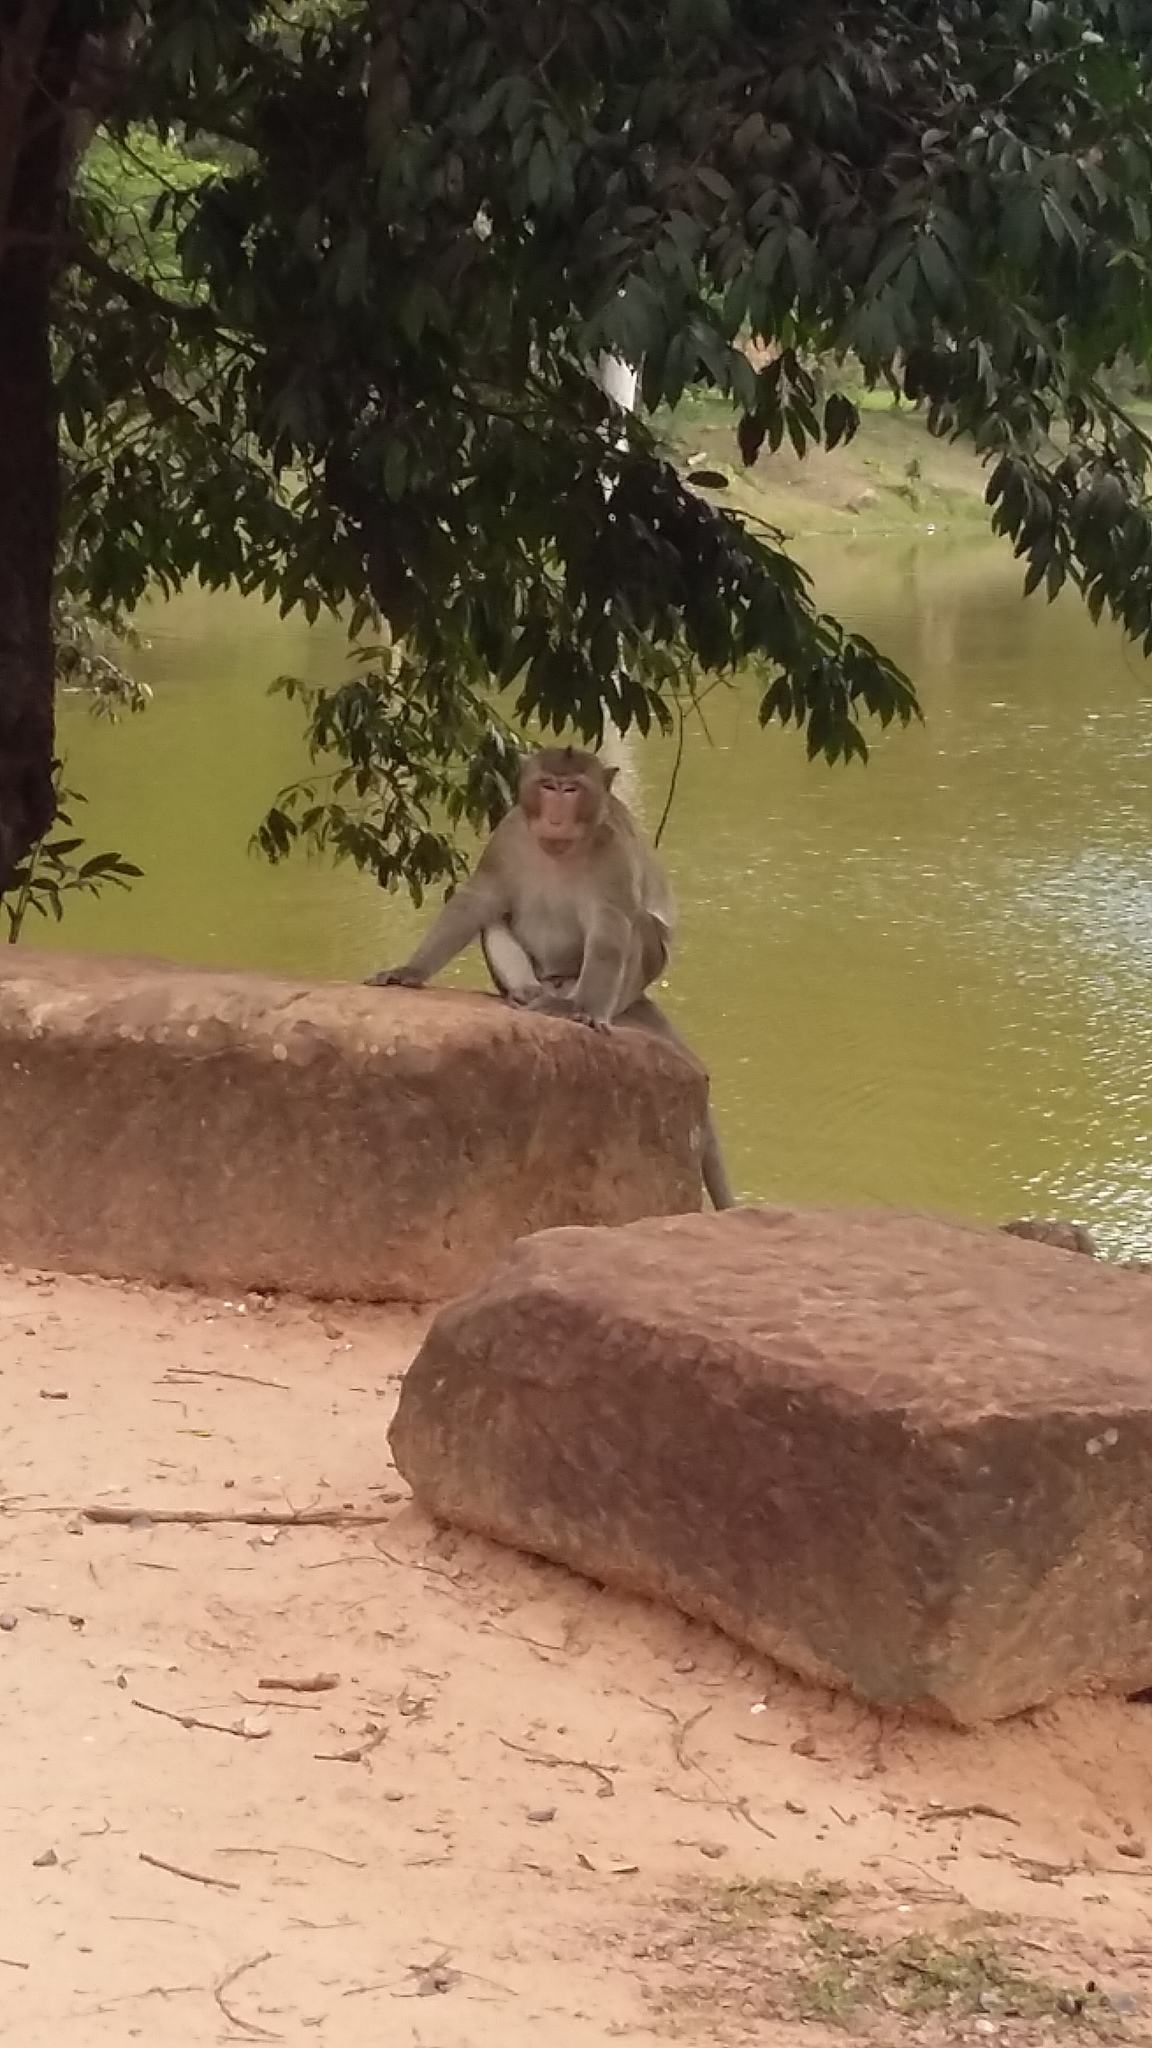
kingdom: Animalia
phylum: Chordata
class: Mammalia
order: Primates
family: Cercopithecidae
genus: Macaca
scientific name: Macaca fascicularis
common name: Crab-eating macaque
